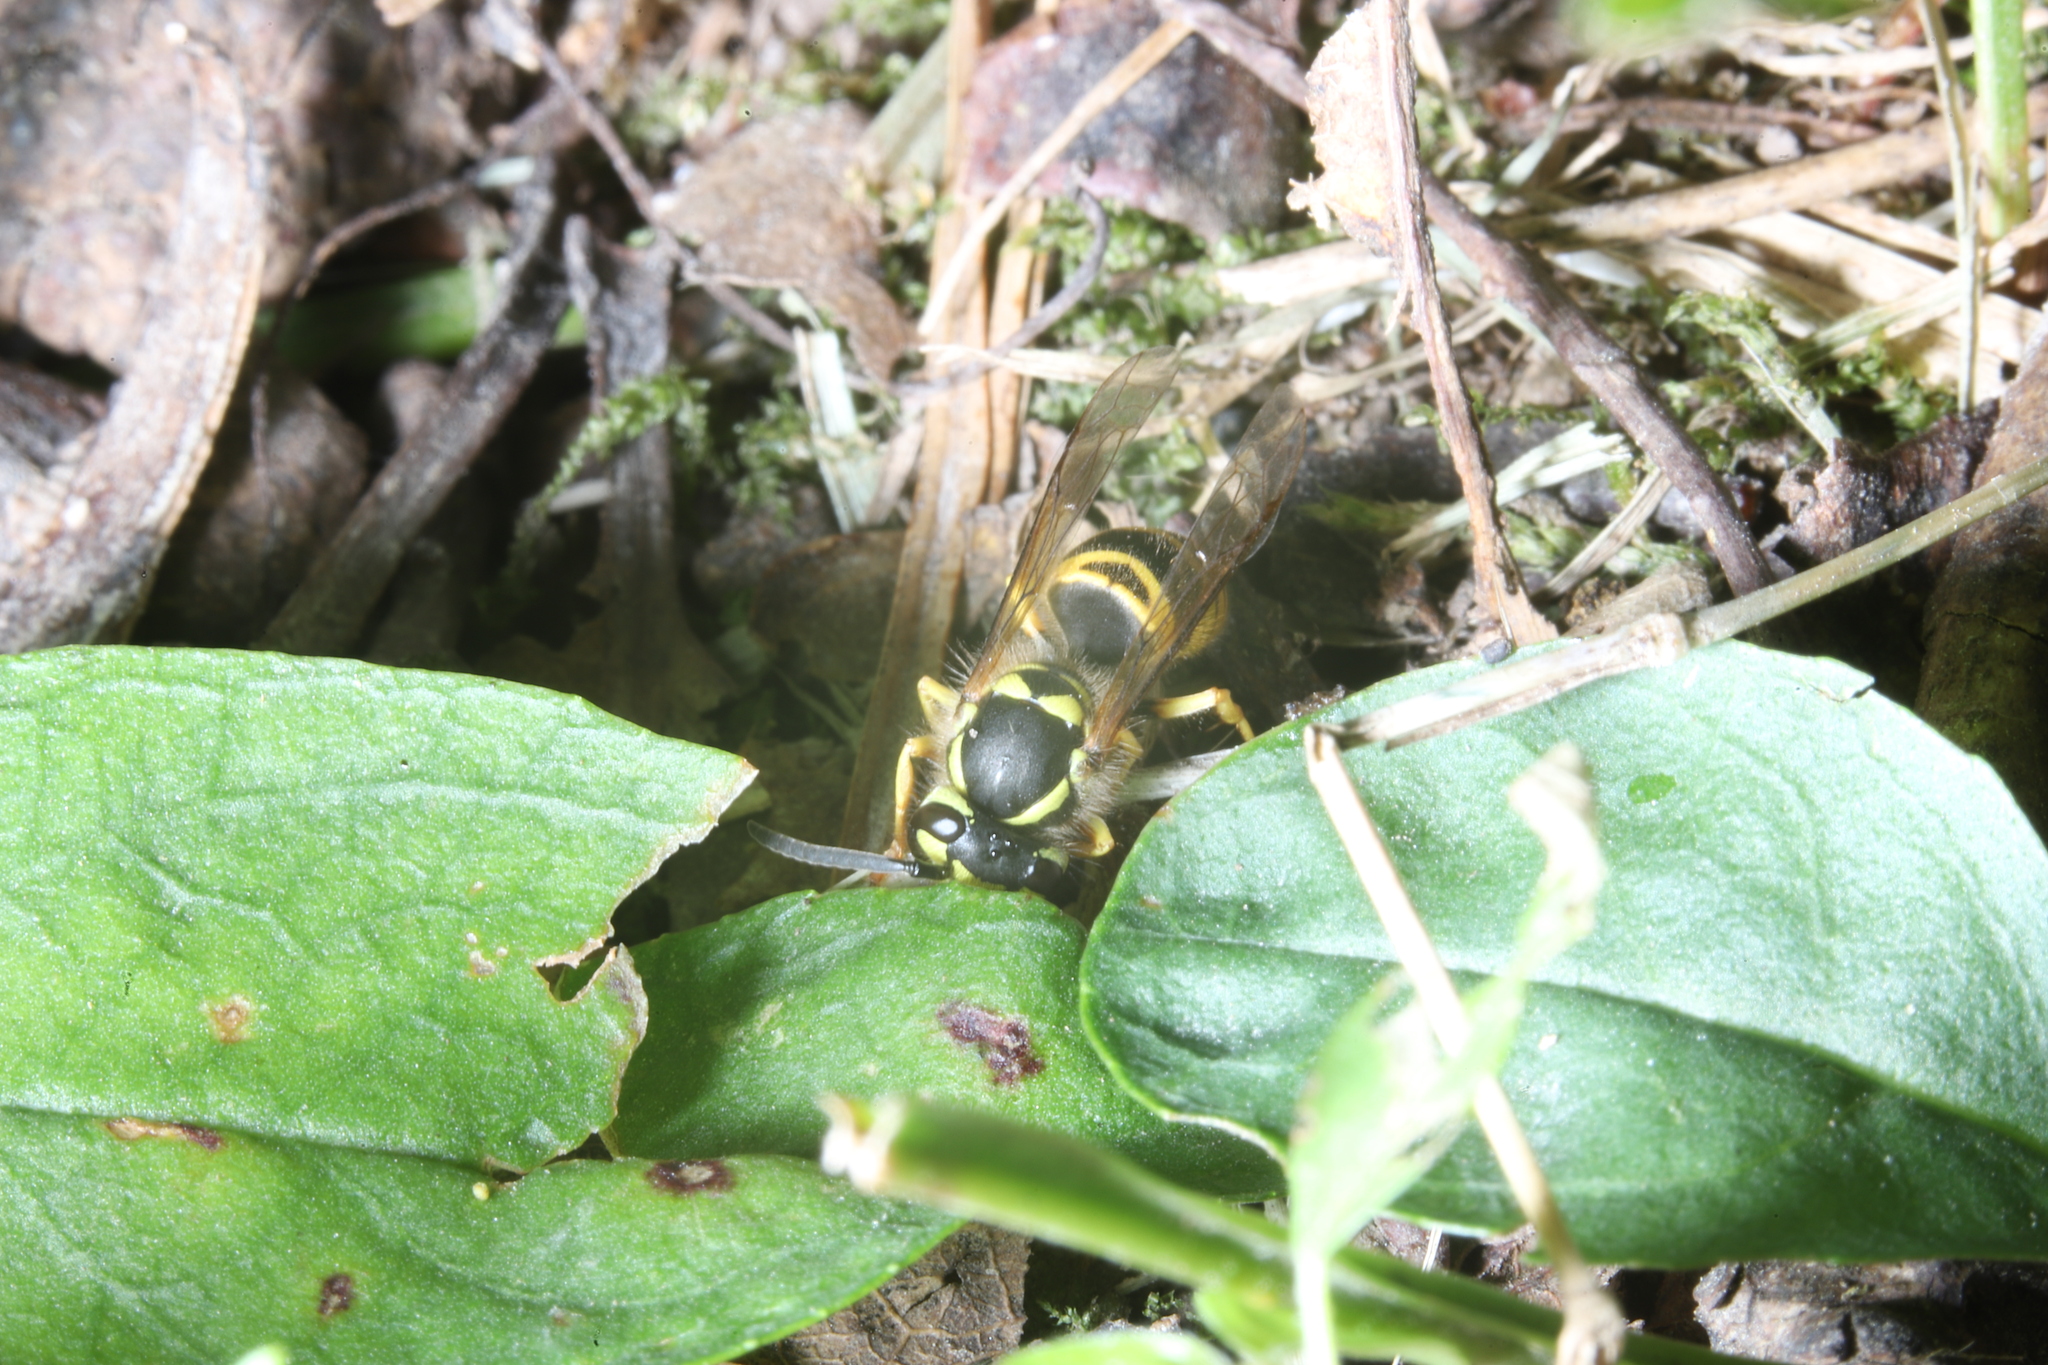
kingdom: Animalia
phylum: Arthropoda
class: Insecta
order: Hymenoptera
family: Vespidae
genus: Vespula
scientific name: Vespula maculifrons
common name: Eastern yellowjacket
